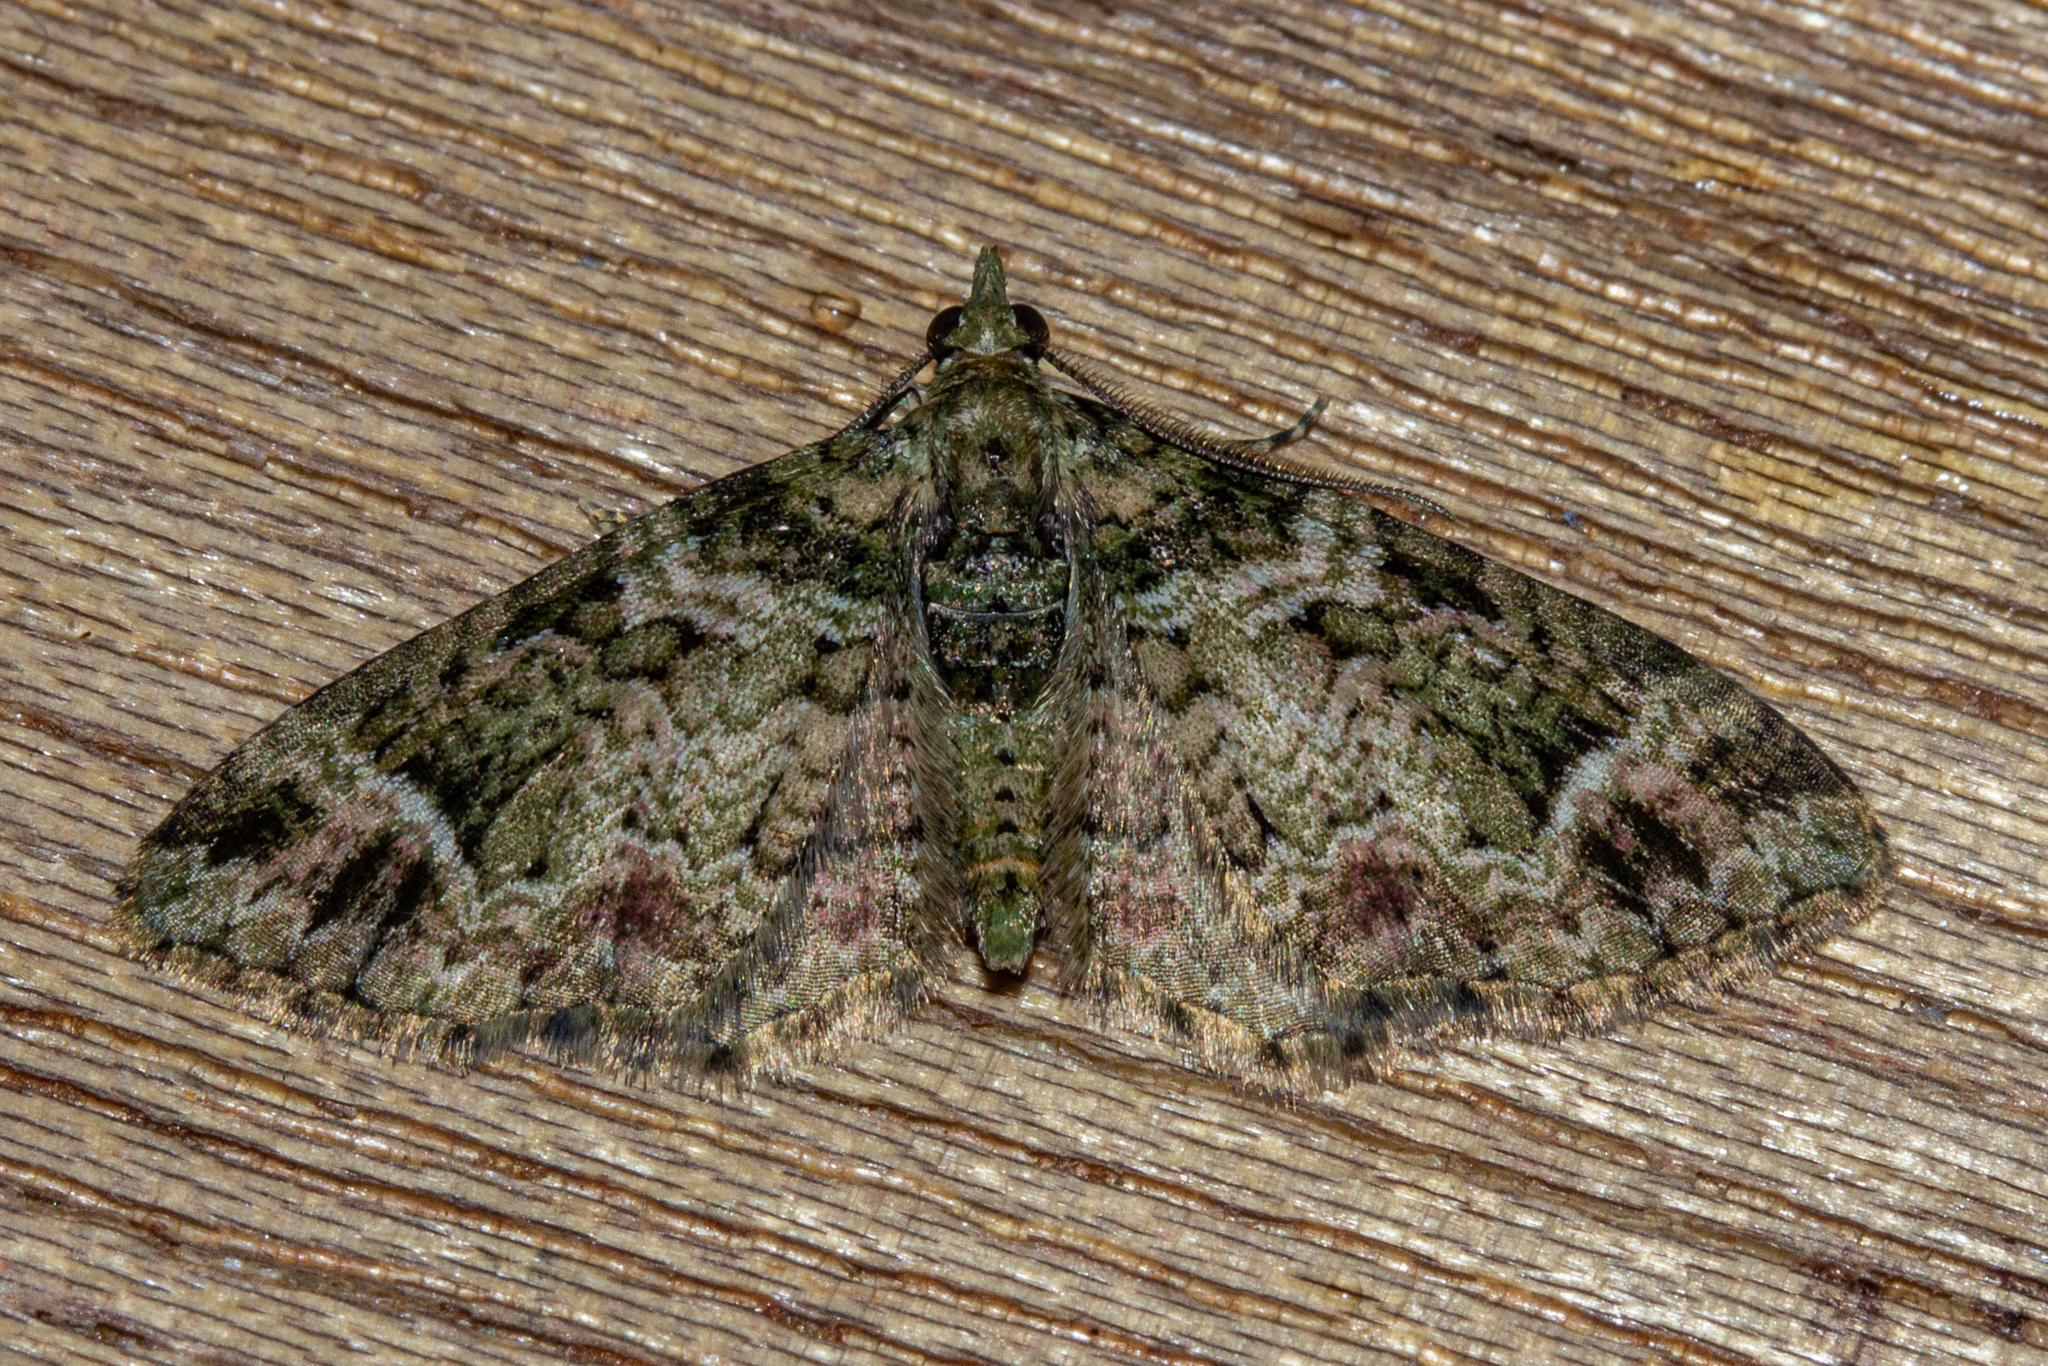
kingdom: Animalia
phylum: Arthropoda
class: Insecta
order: Lepidoptera
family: Geometridae
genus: Pasiphila
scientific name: Pasiphila urticae
